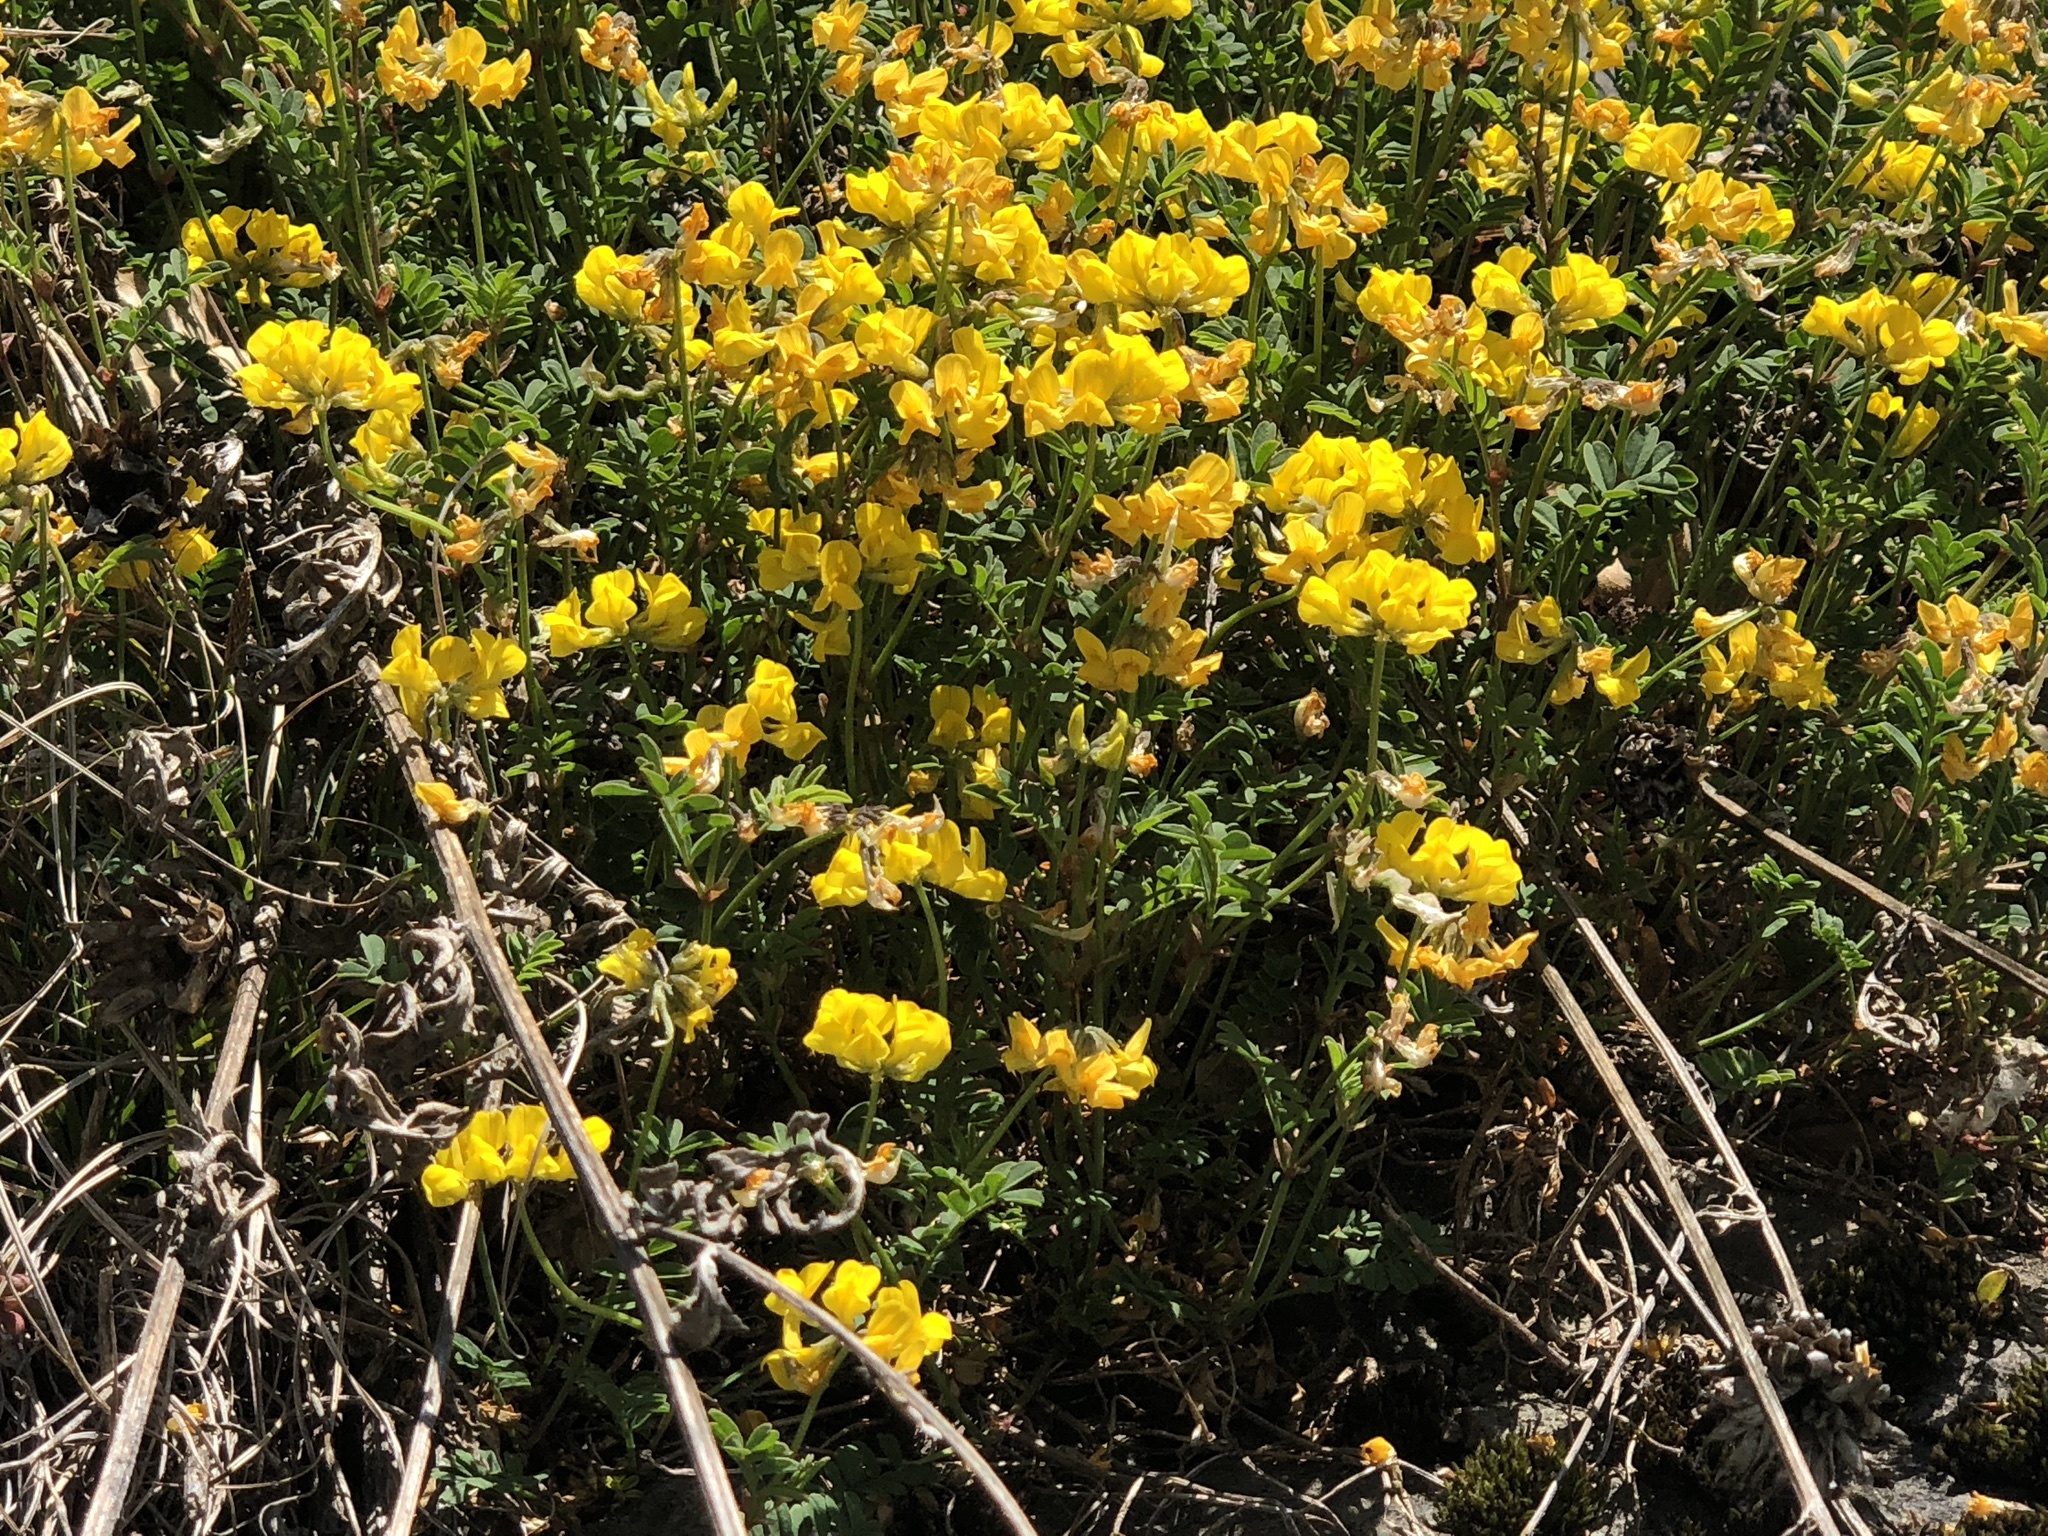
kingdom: Plantae
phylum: Tracheophyta
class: Magnoliopsida
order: Fabales
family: Fabaceae
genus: Hippocrepis
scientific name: Hippocrepis comosa
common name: Horseshoe vetch
